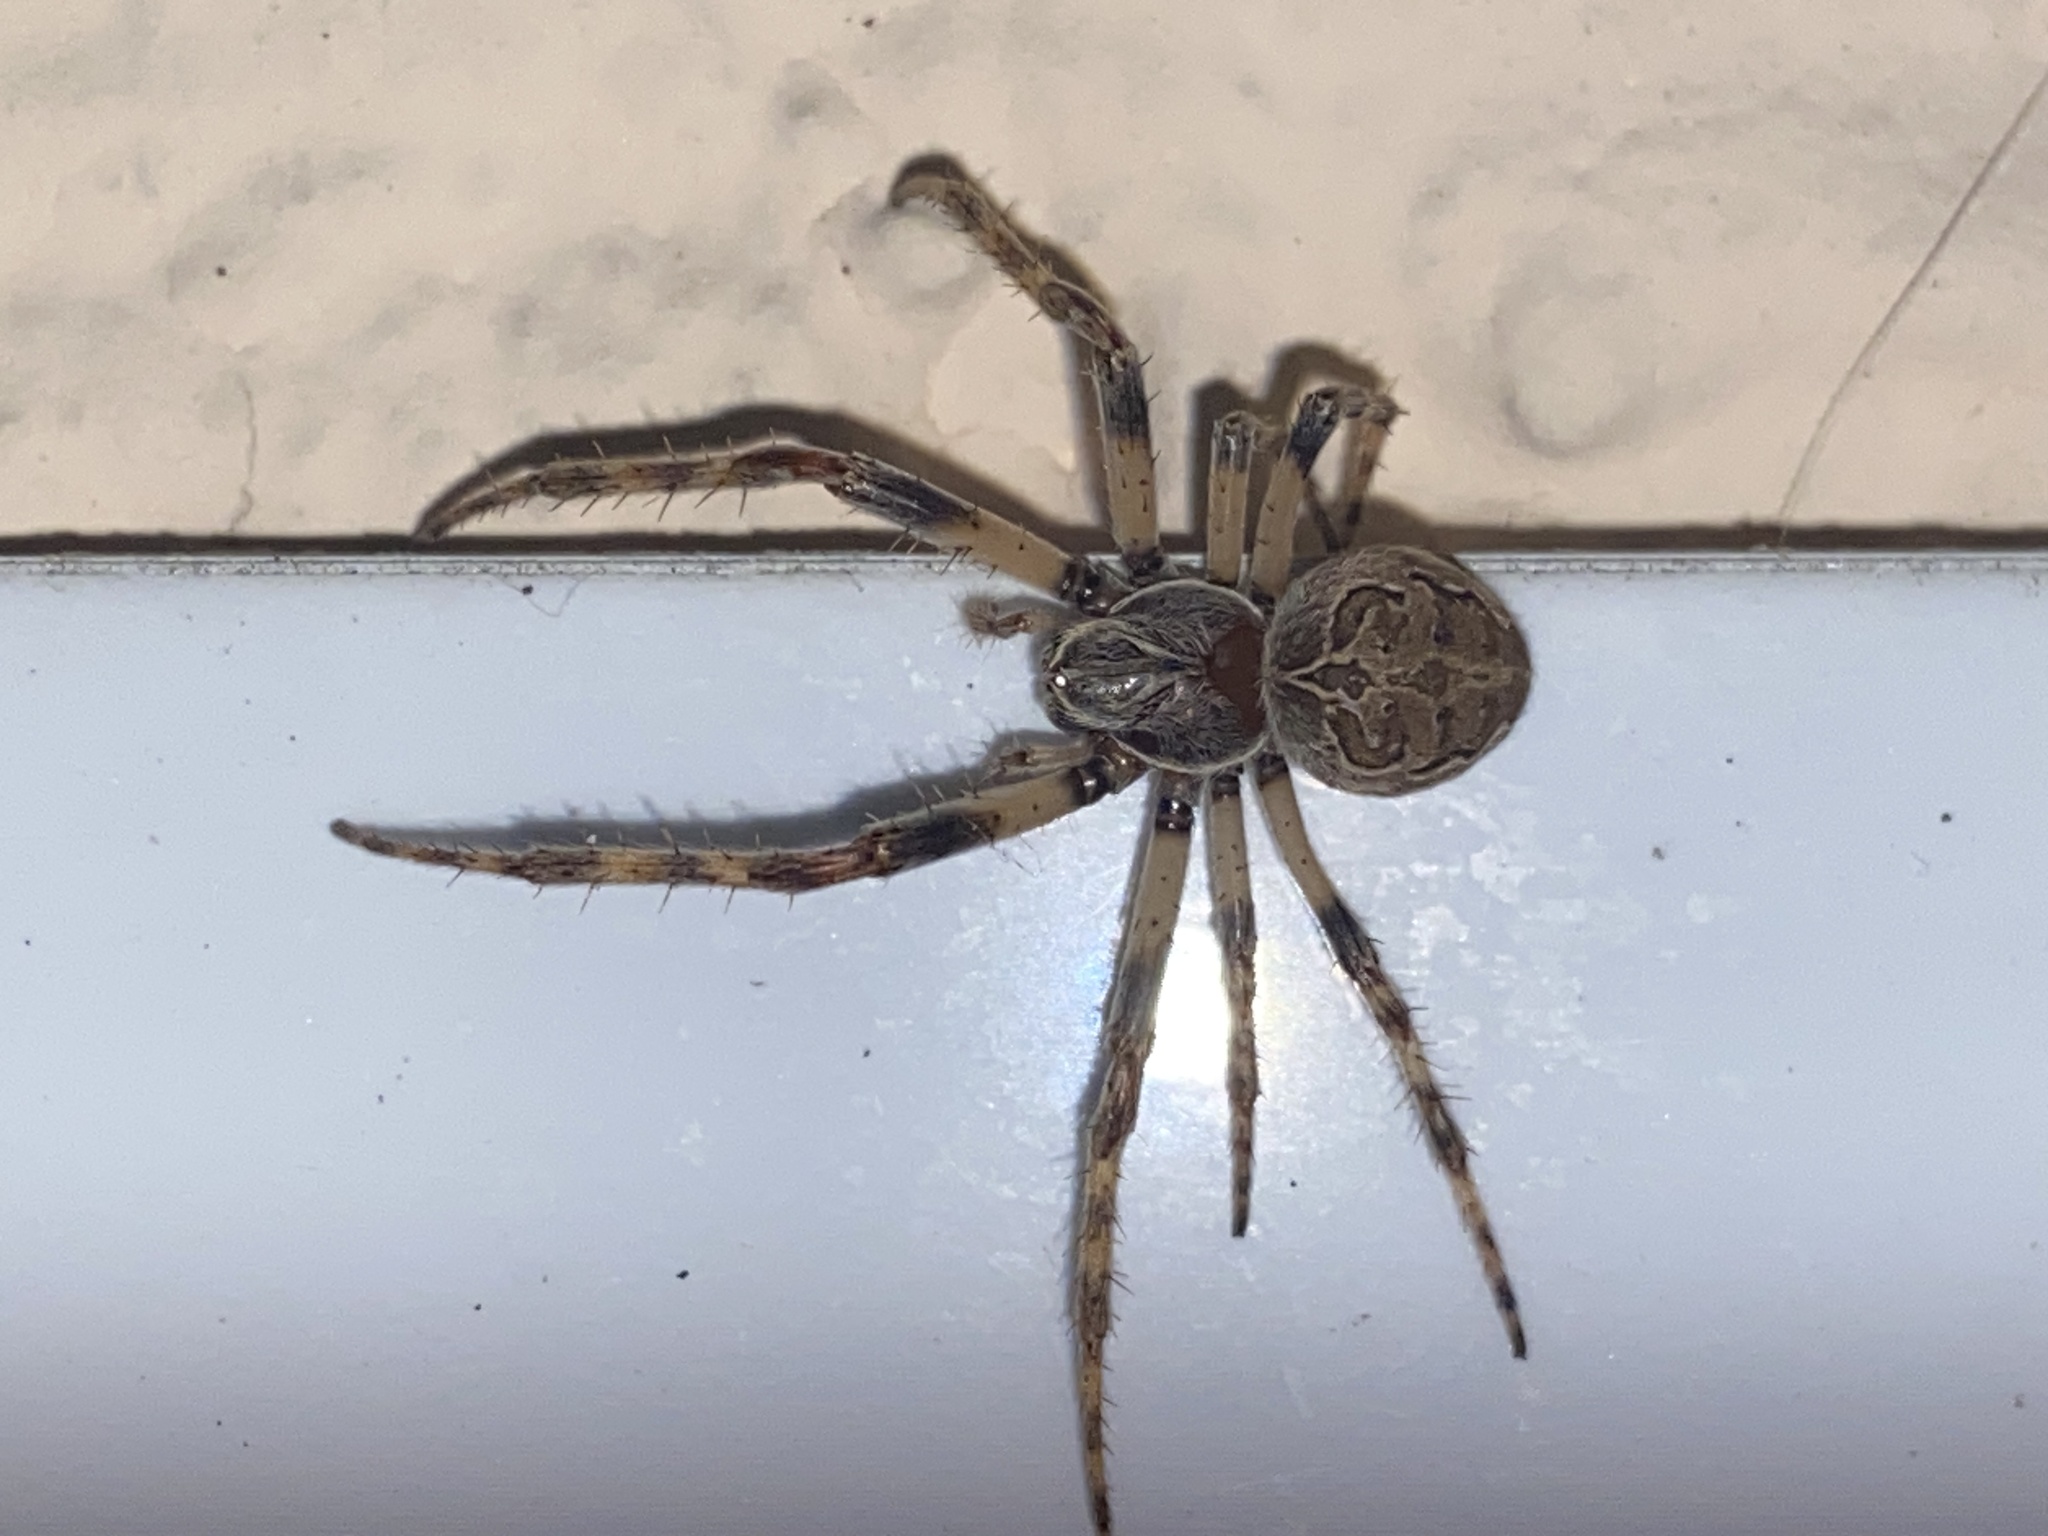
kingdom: Animalia
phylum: Arthropoda
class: Arachnida
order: Araneae
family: Araneidae
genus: Larinioides
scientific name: Larinioides sclopetarius
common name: Bridge orbweaver
